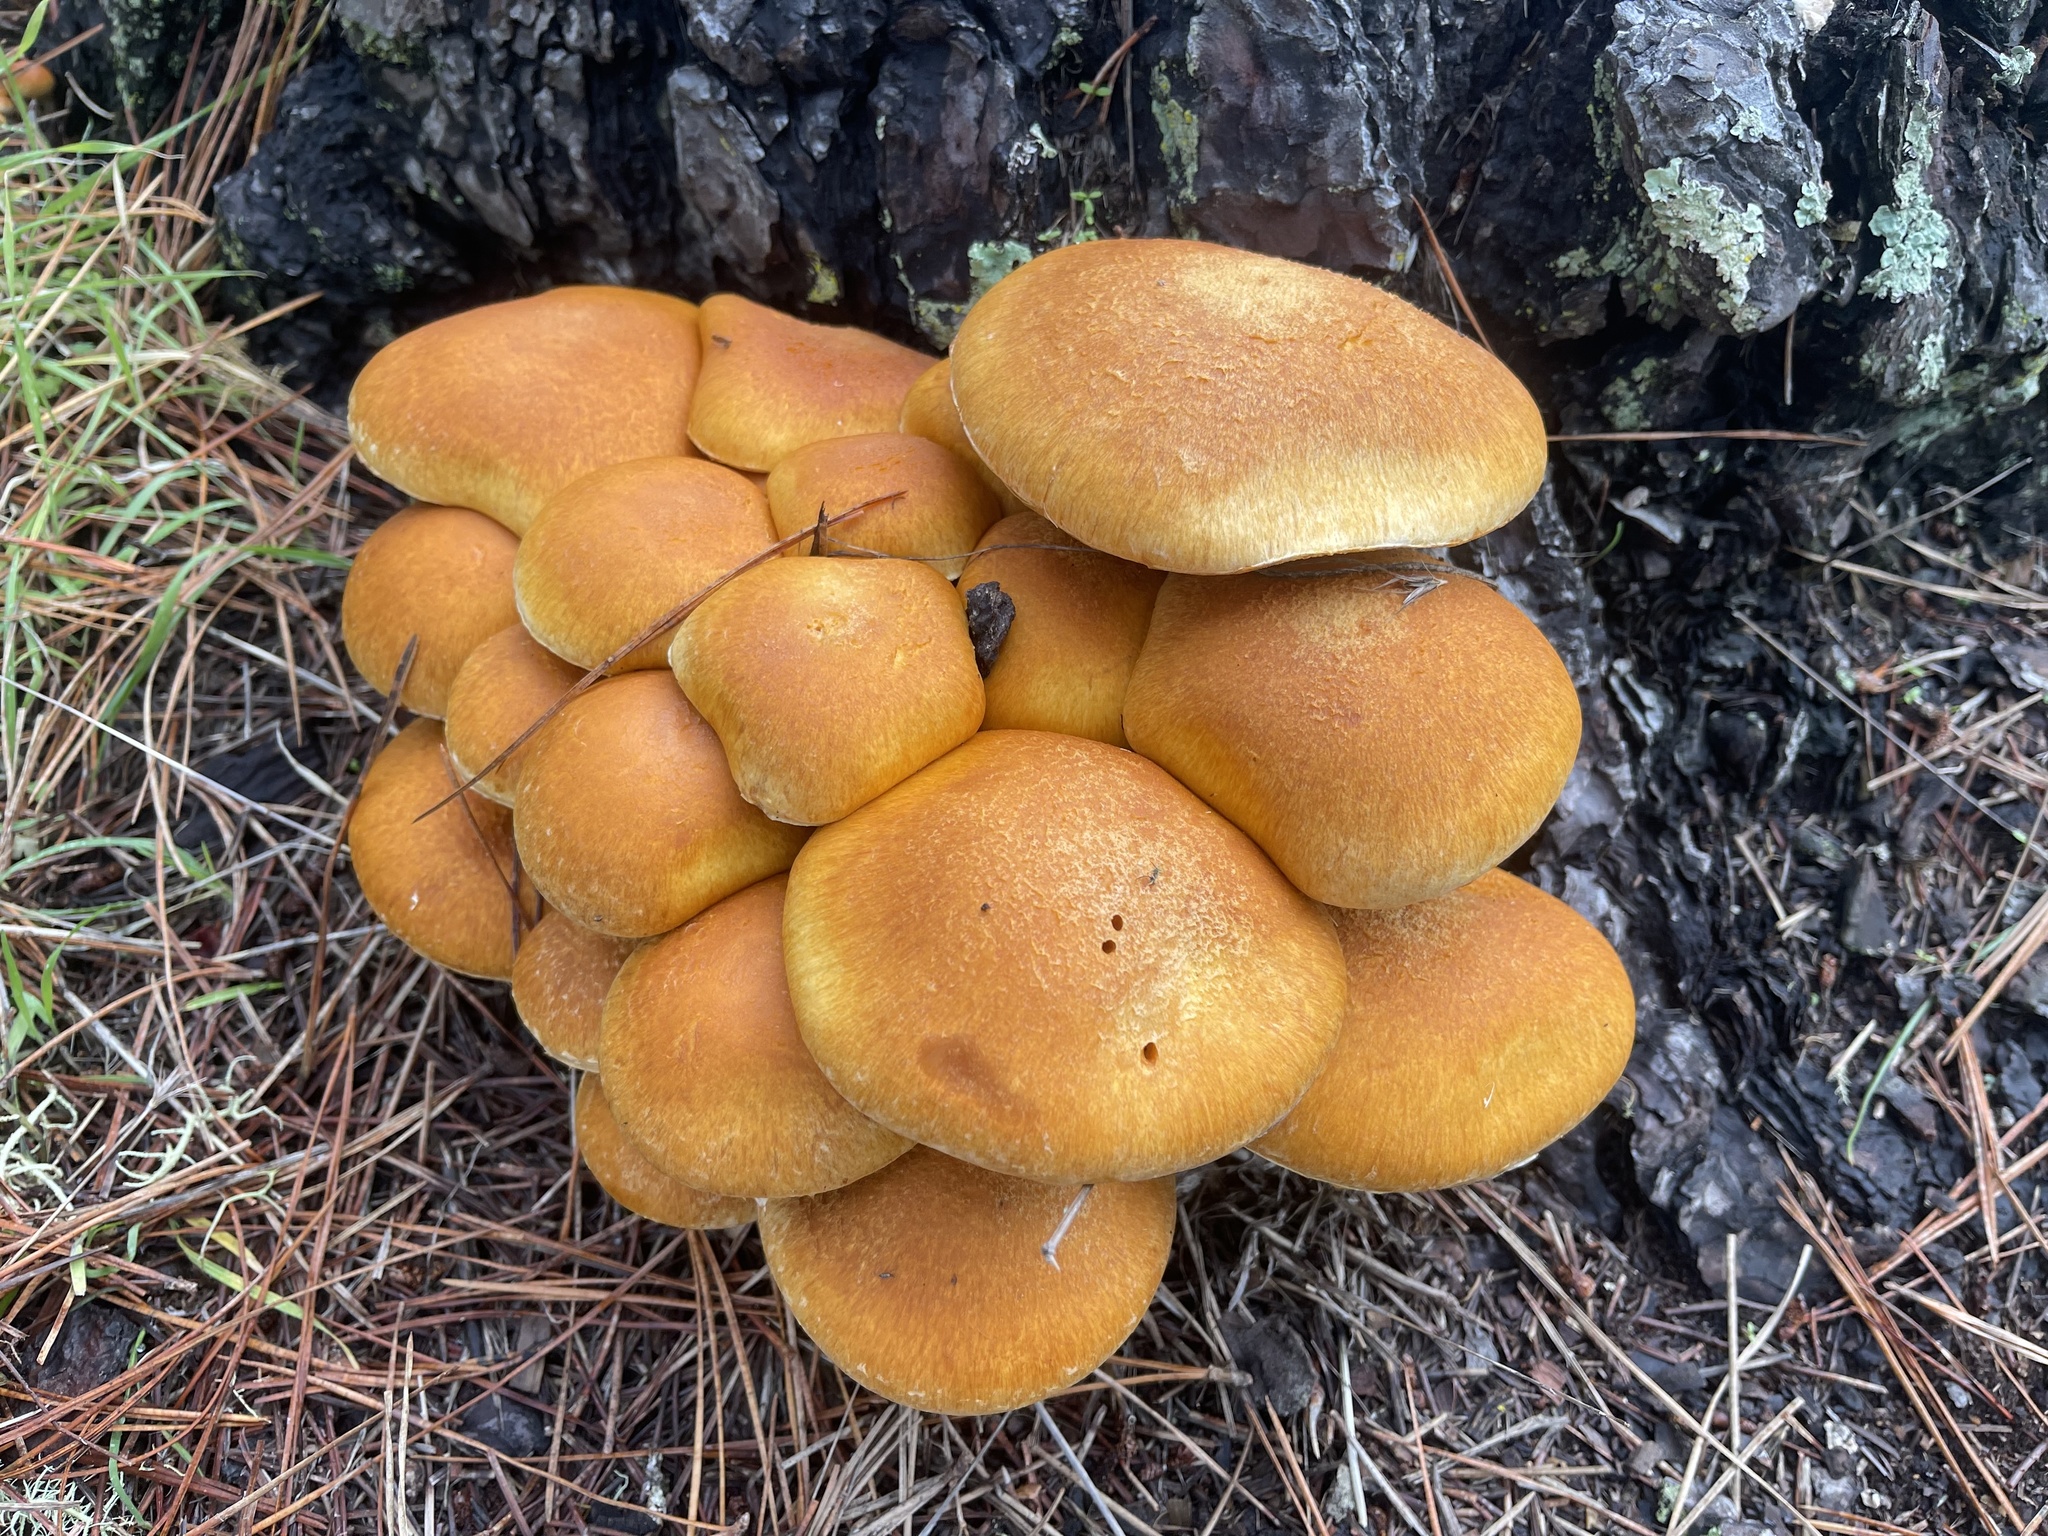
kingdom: Fungi
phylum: Basidiomycota
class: Agaricomycetes
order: Agaricales
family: Hymenogastraceae
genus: Gymnopilus
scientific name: Gymnopilus ventricosus
